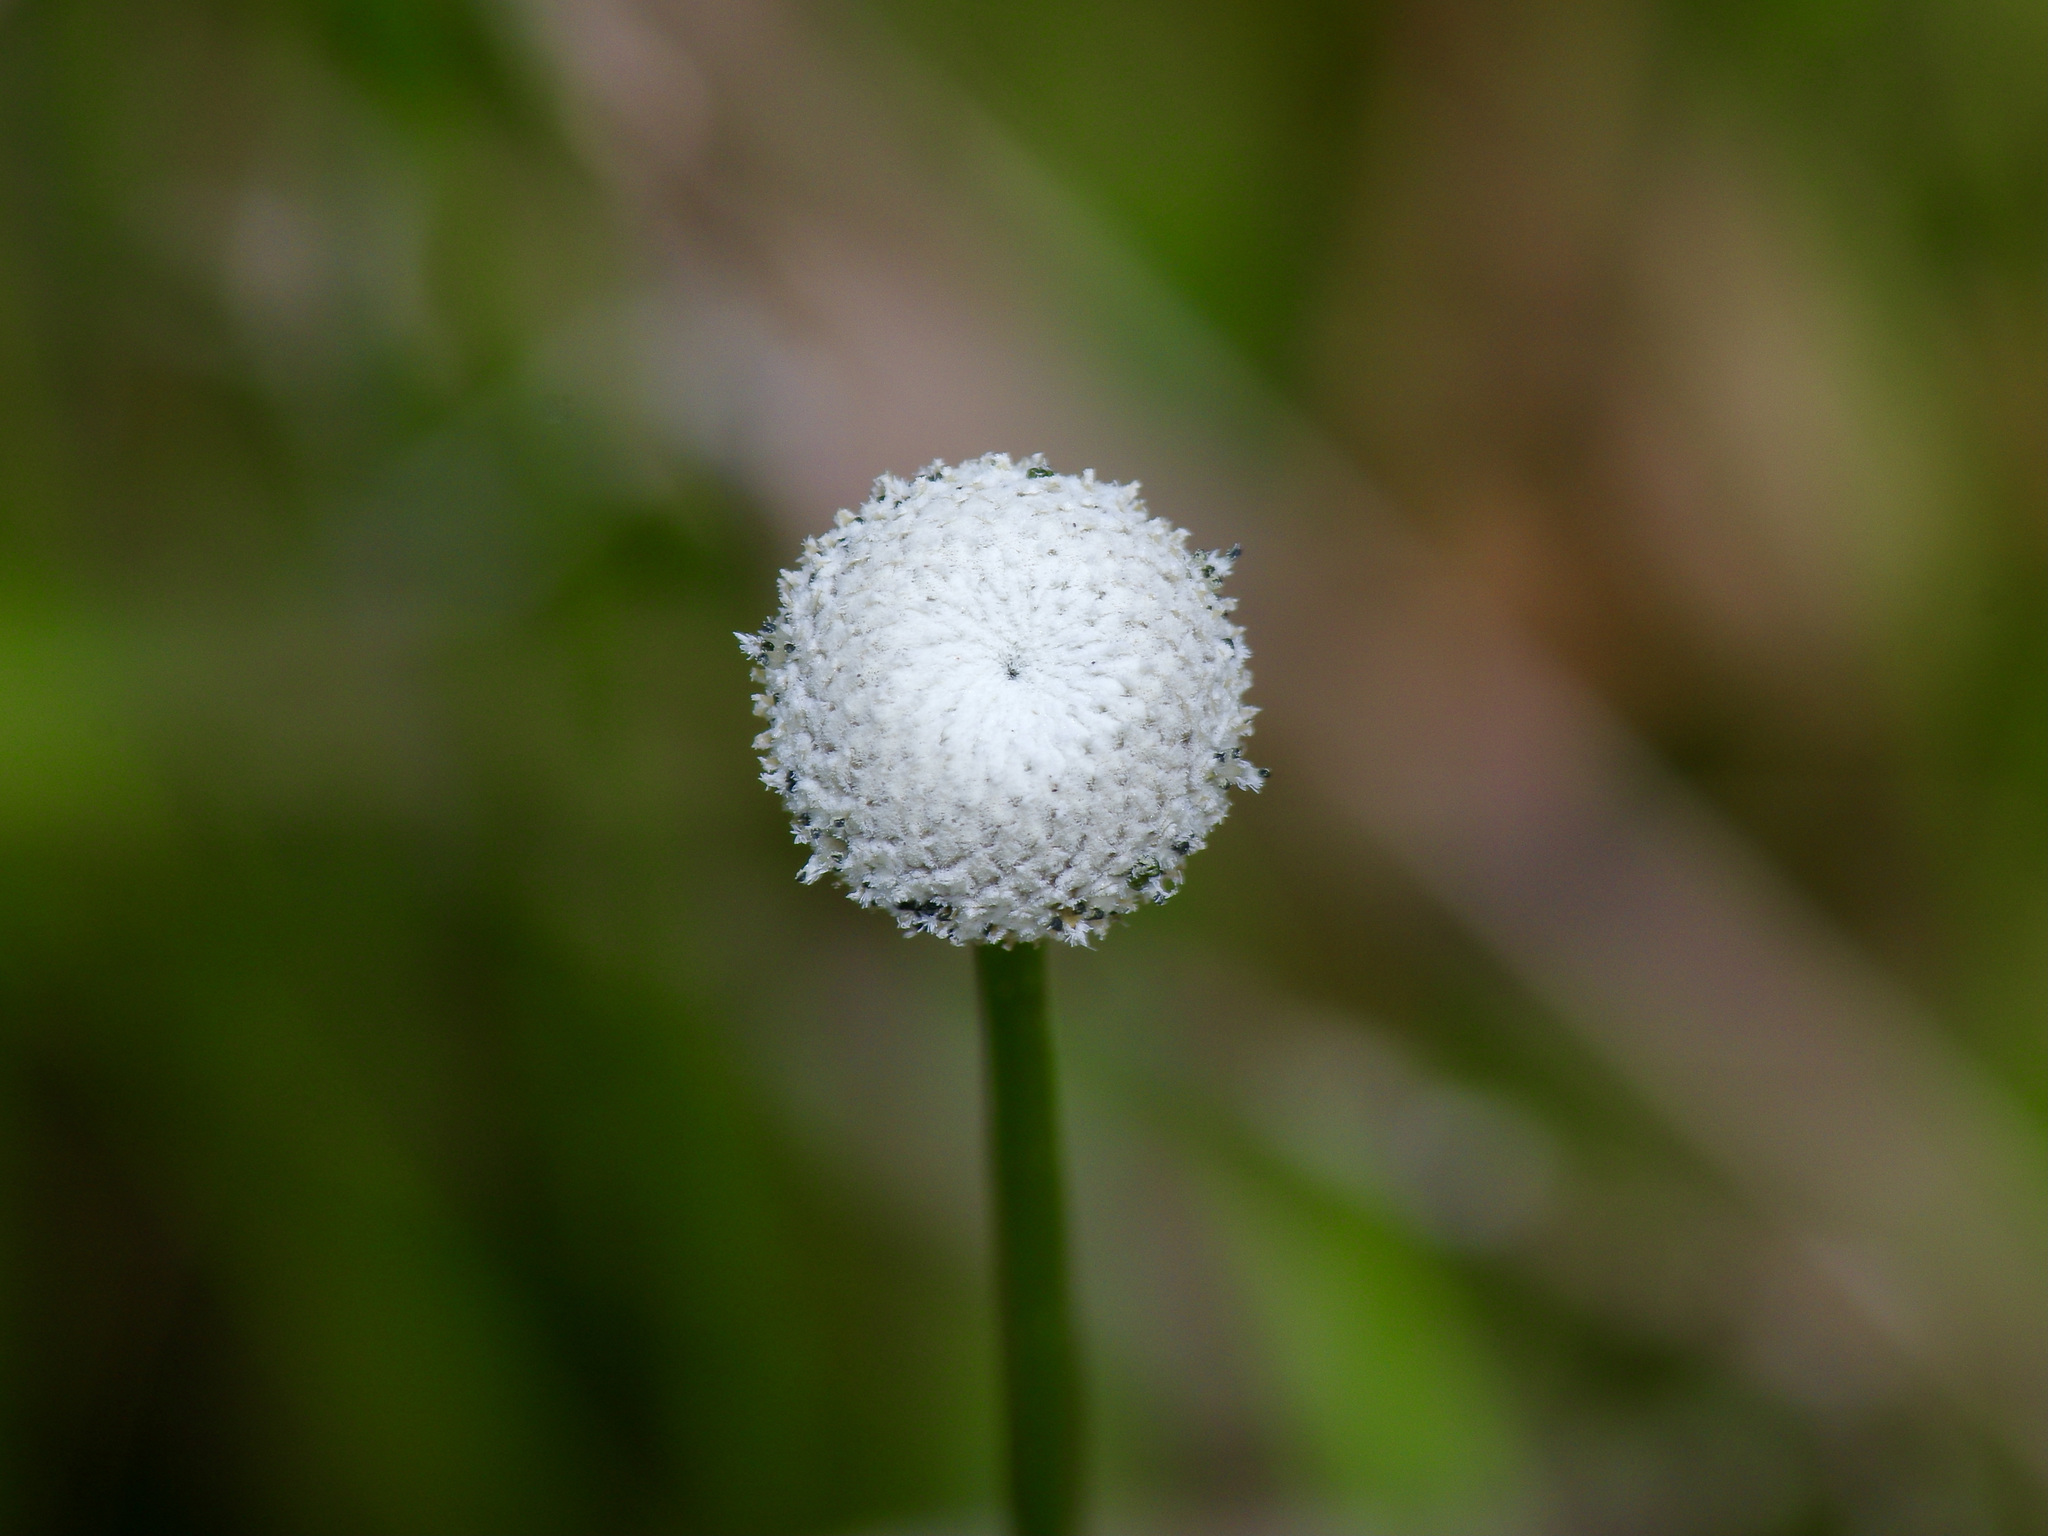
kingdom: Plantae
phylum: Tracheophyta
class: Liliopsida
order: Poales
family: Eriocaulaceae
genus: Eriocaulon
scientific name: Eriocaulon decangulare
